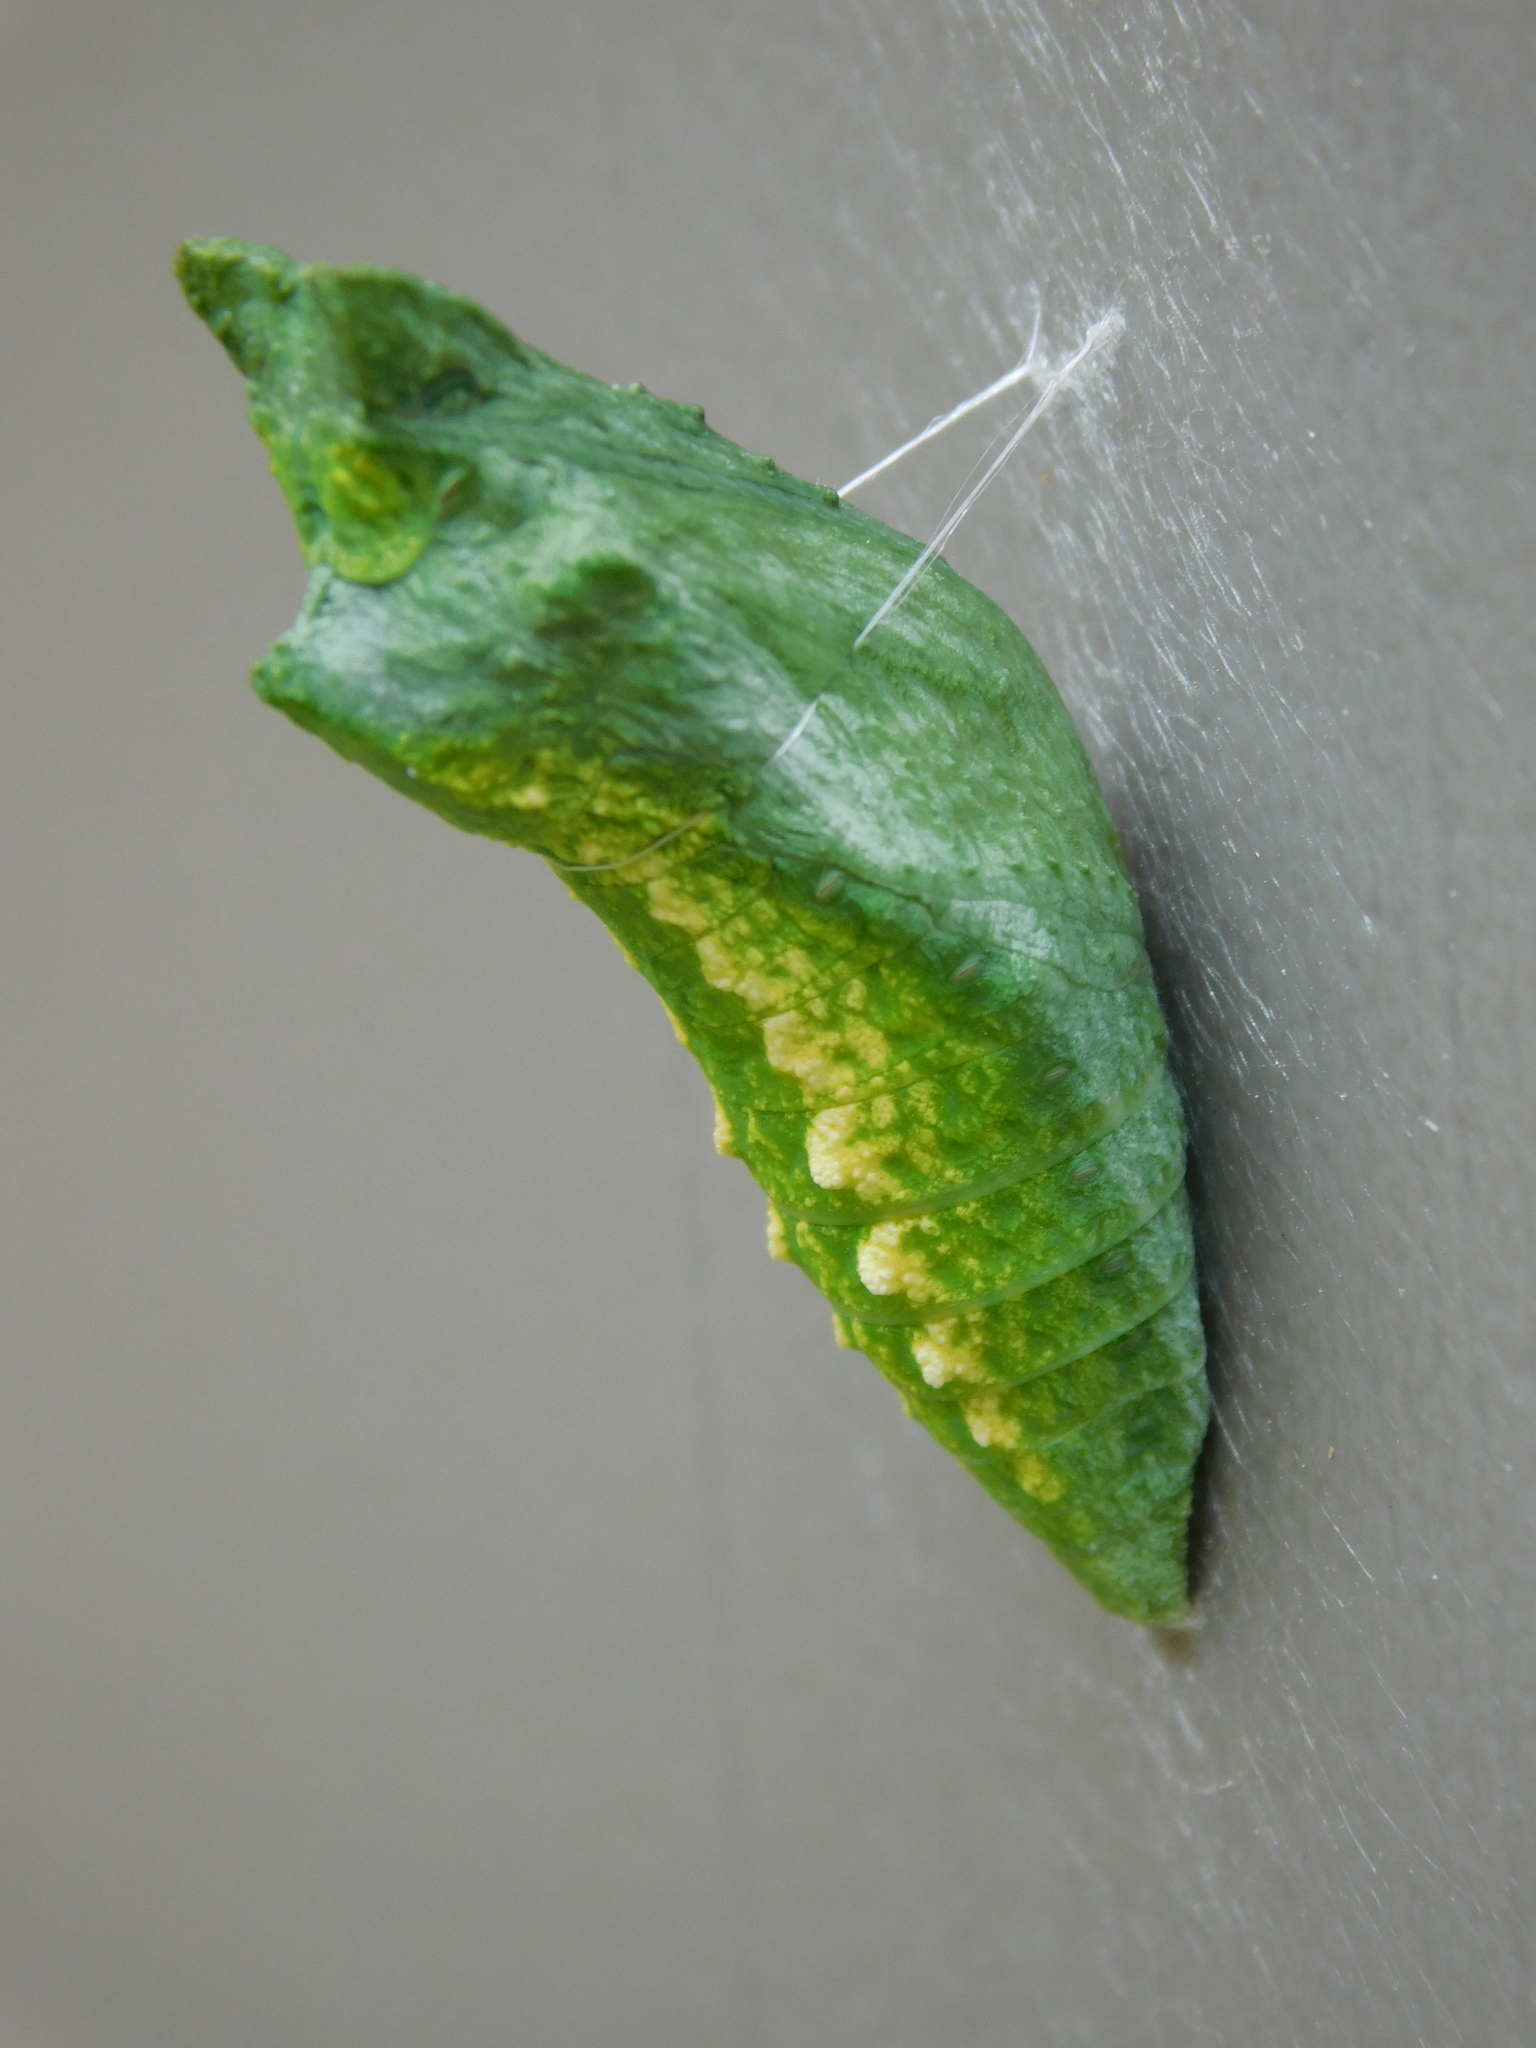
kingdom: Animalia
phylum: Arthropoda
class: Insecta
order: Lepidoptera
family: Papilionidae
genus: Papilio
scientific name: Papilio polyxenes
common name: Black swallowtail
